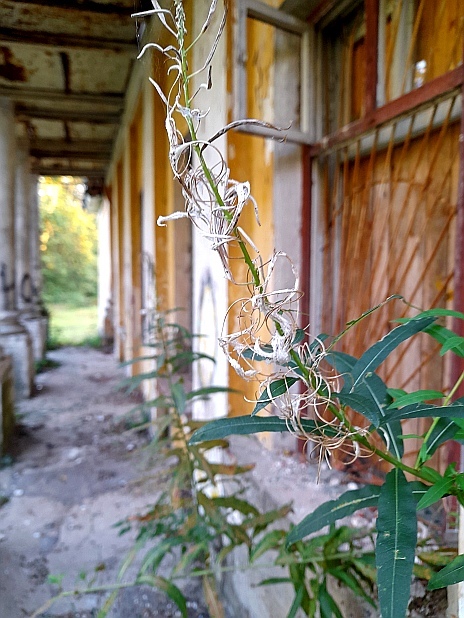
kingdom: Plantae
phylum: Tracheophyta
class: Magnoliopsida
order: Myrtales
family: Onagraceae
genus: Chamaenerion
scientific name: Chamaenerion angustifolium
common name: Fireweed
